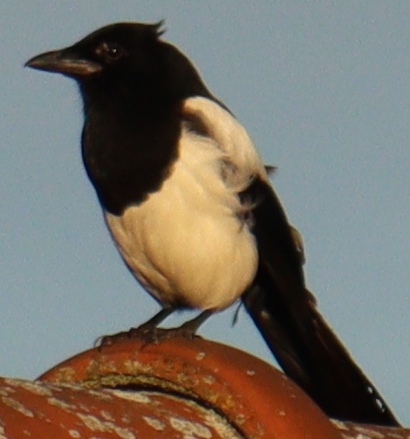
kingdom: Animalia
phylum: Chordata
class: Aves
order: Passeriformes
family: Corvidae
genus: Pica
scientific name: Pica pica
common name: Eurasian magpie
